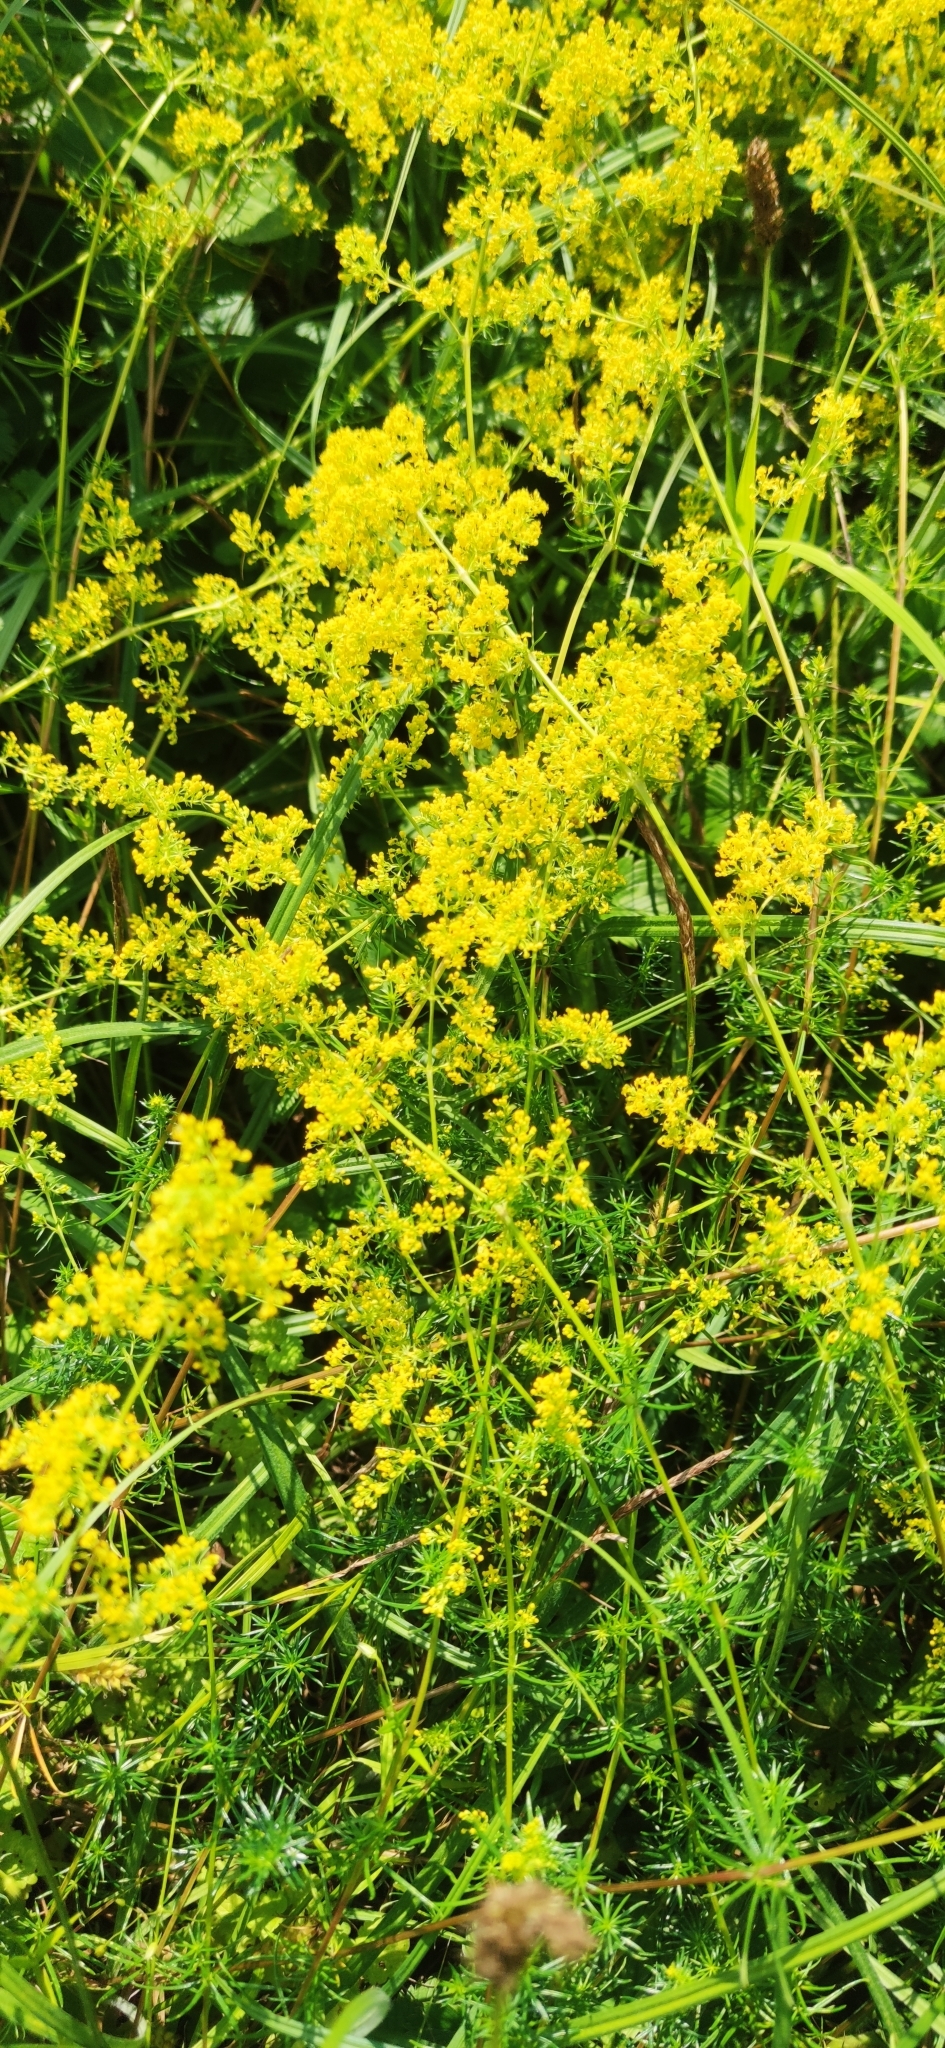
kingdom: Plantae
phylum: Tracheophyta
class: Magnoliopsida
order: Gentianales
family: Rubiaceae
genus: Galium
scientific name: Galium verum
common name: Lady's bedstraw
